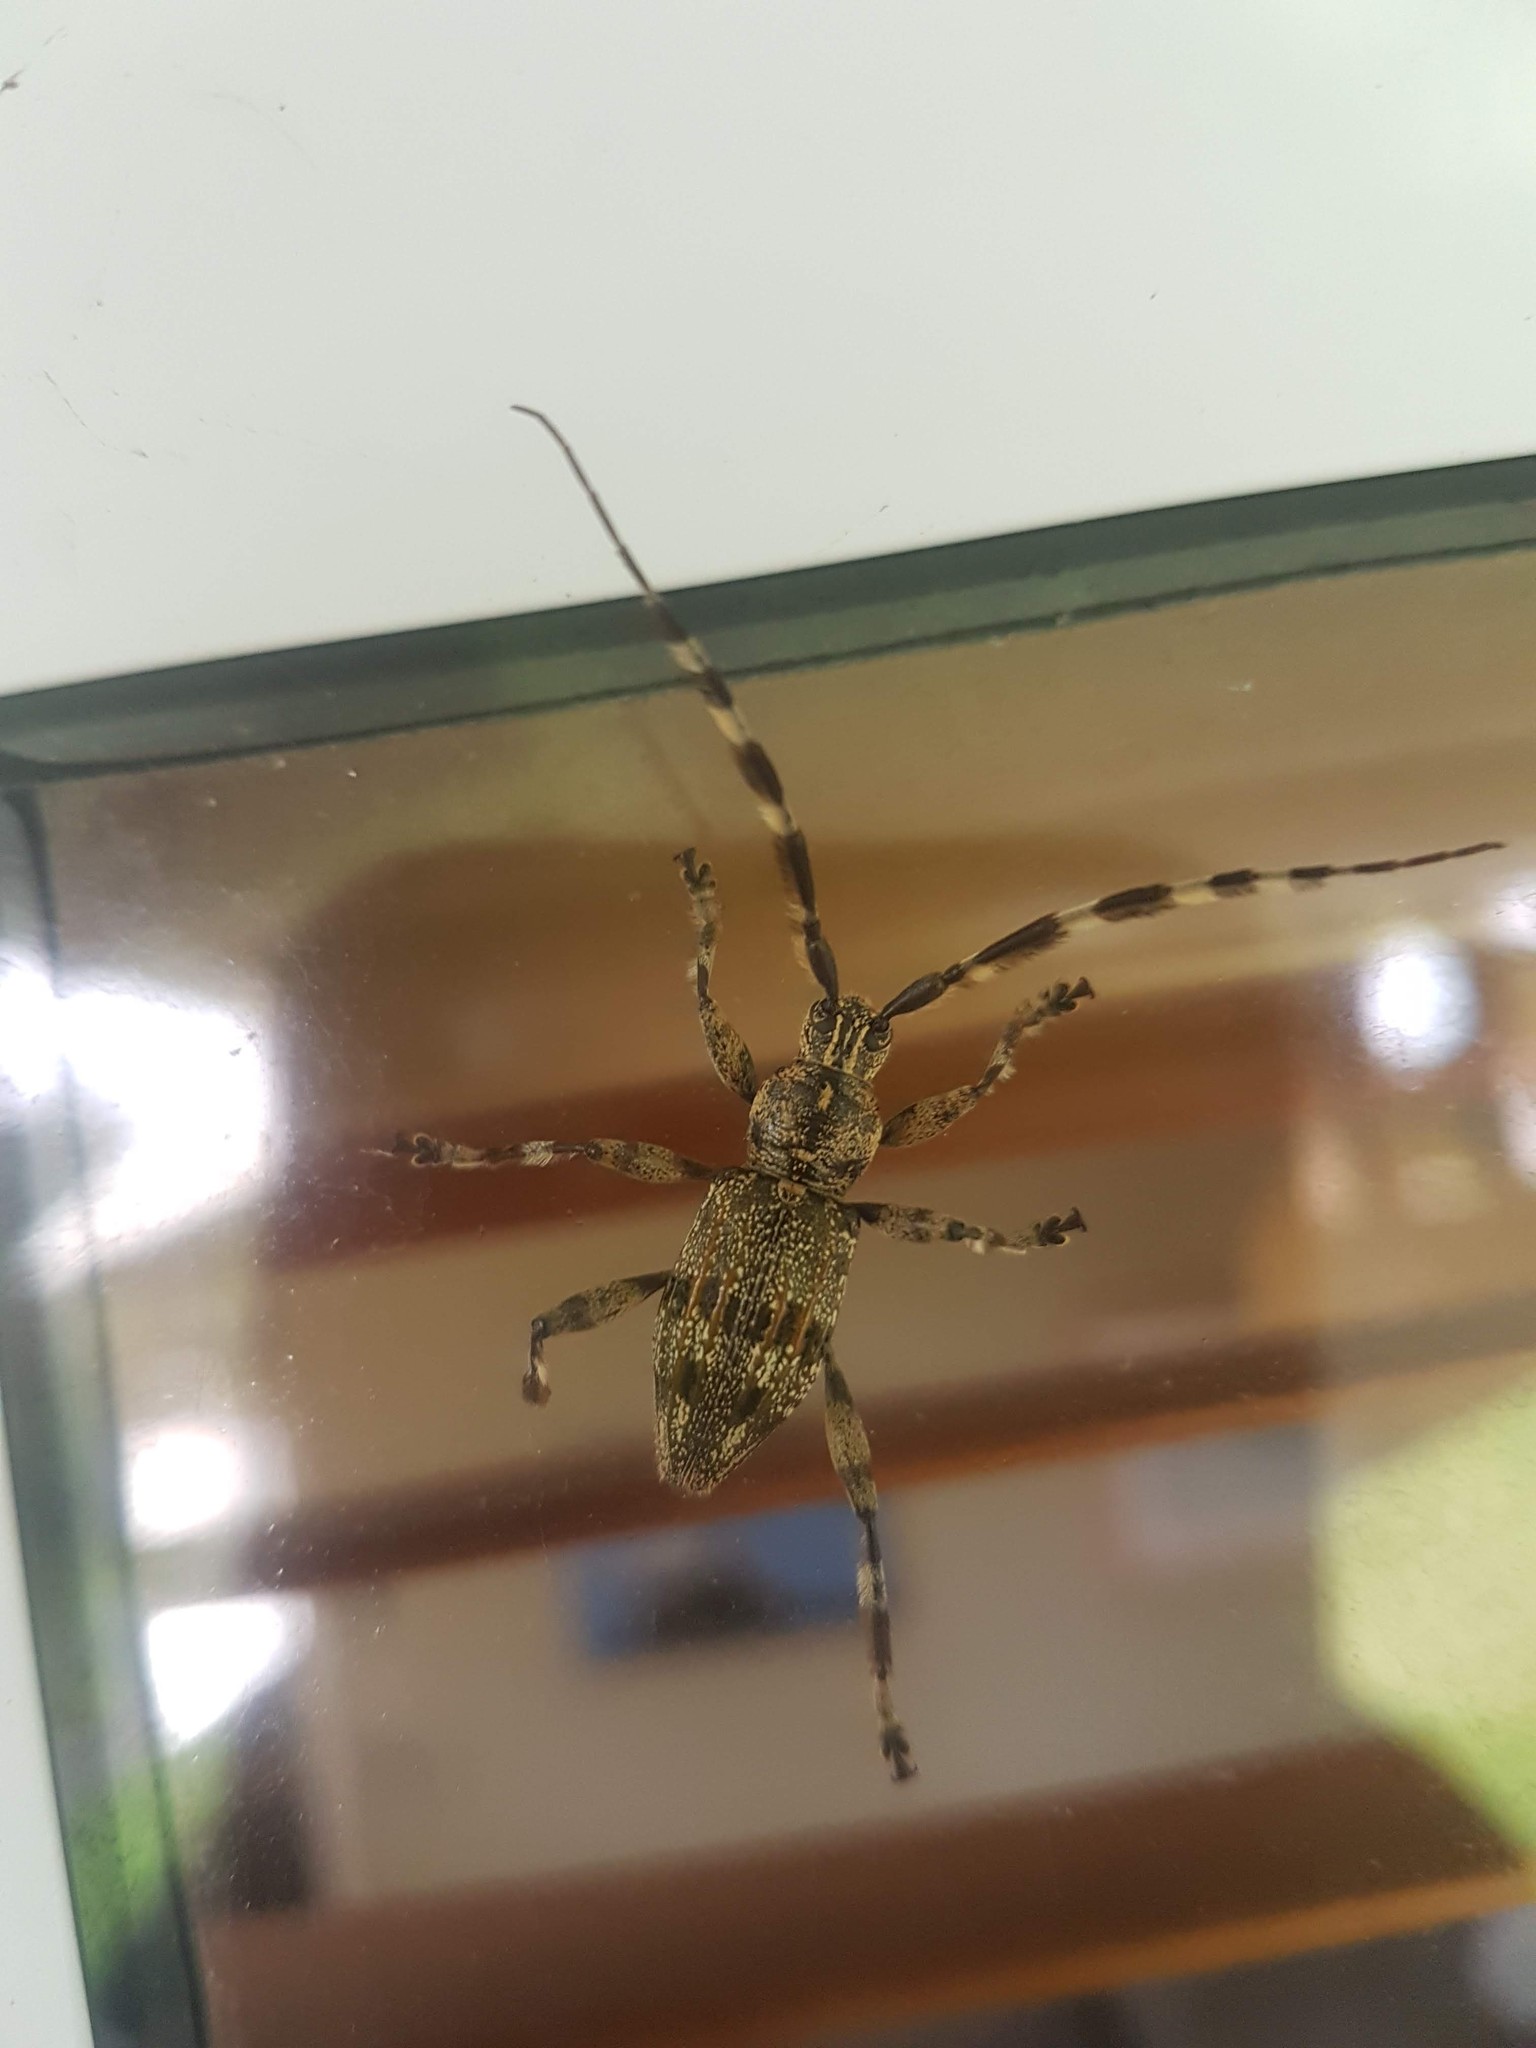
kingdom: Animalia
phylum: Arthropoda
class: Insecta
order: Coleoptera
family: Cerambycidae
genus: Hexatricha
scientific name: Hexatricha pulverulenta
